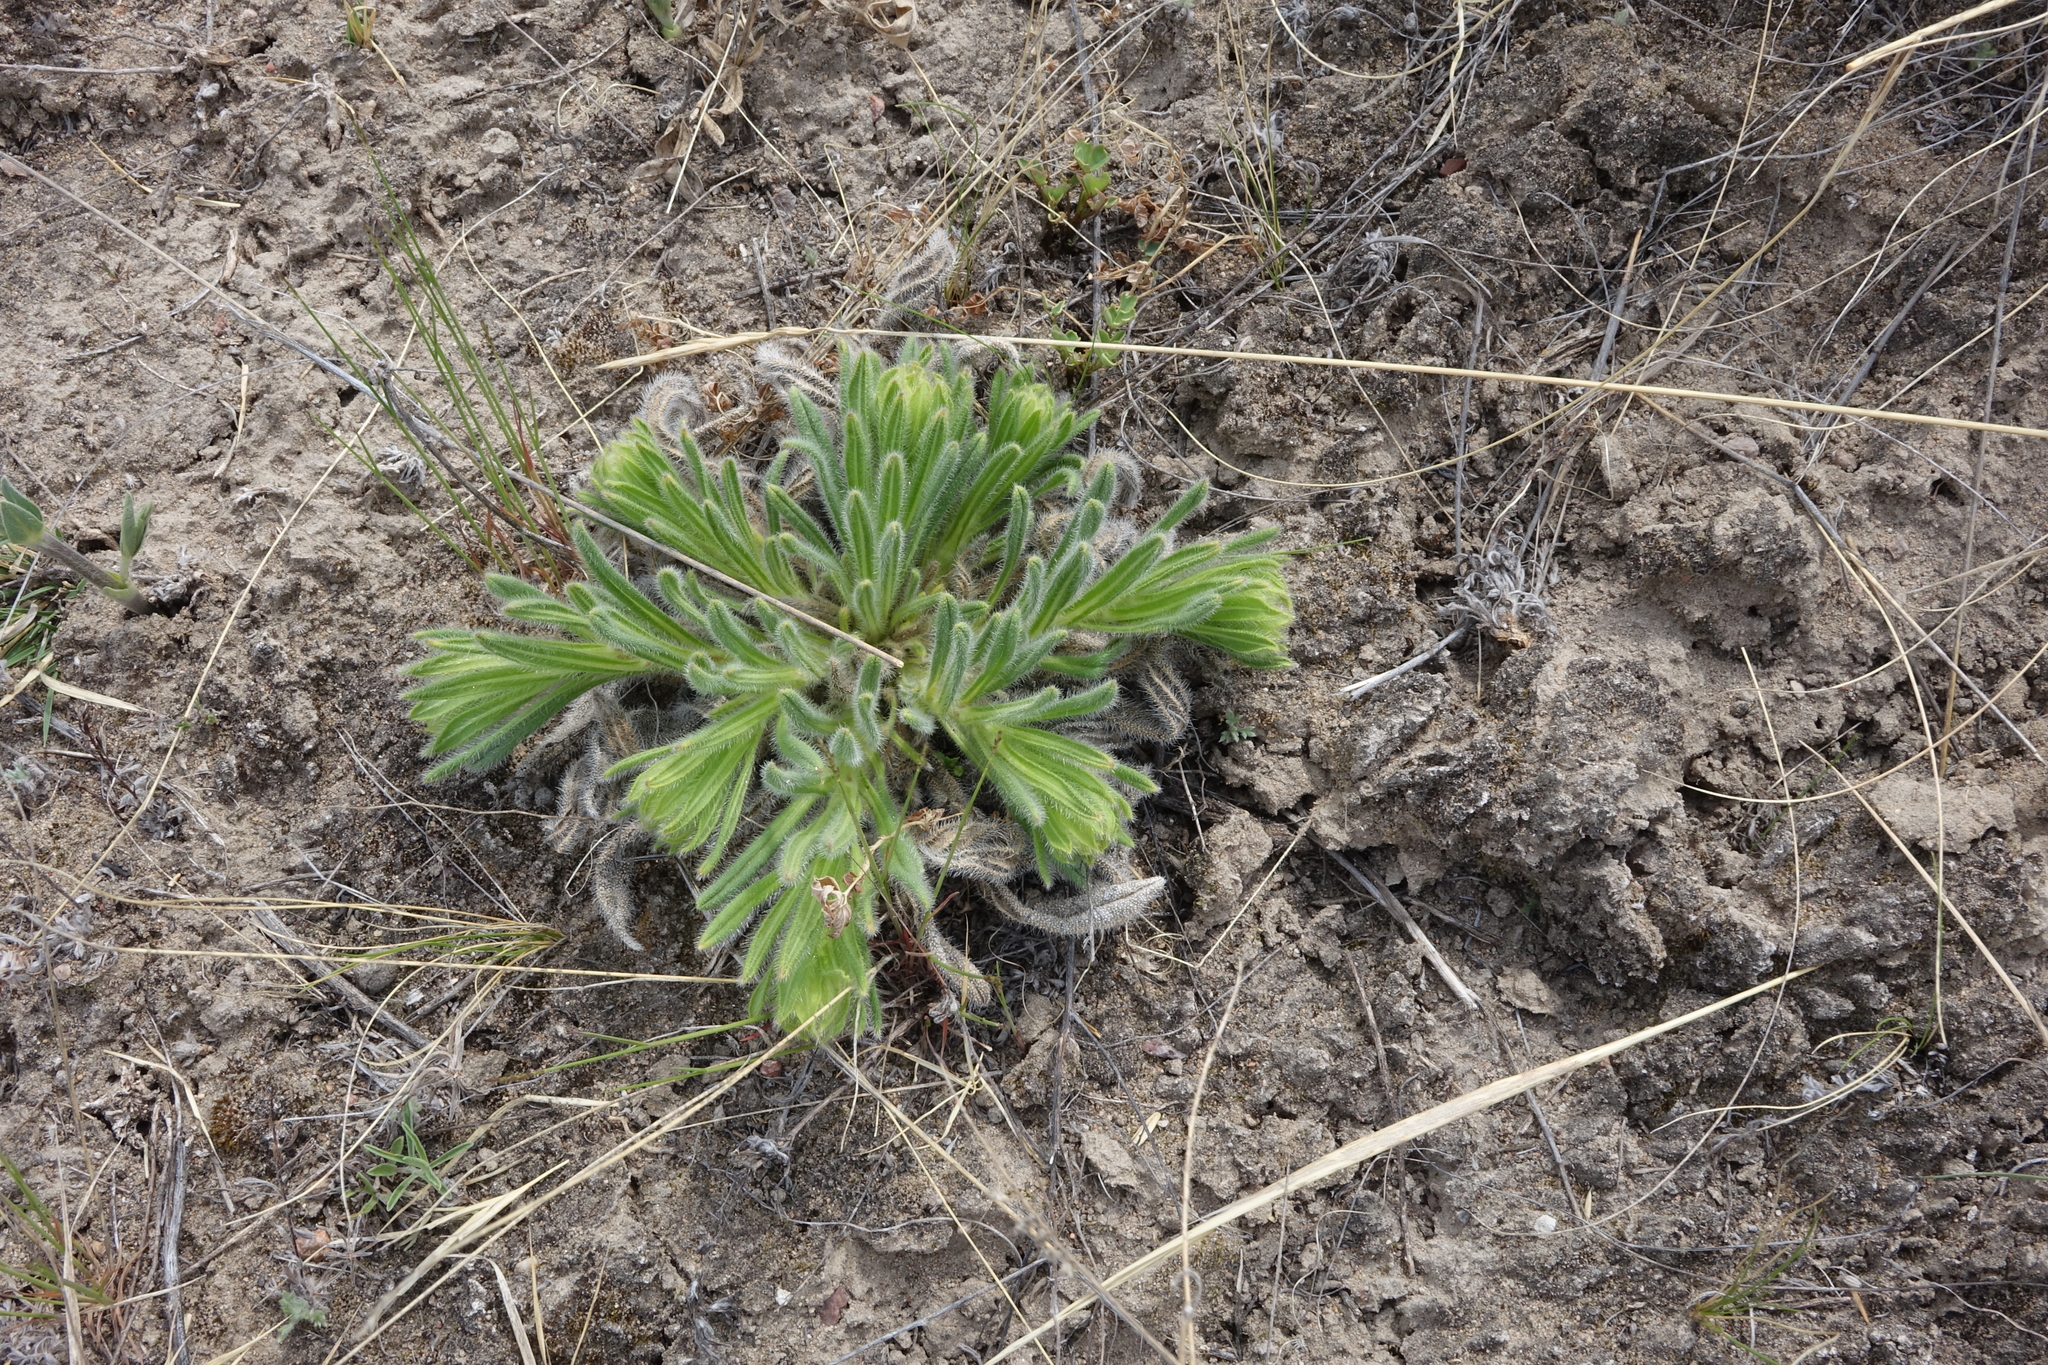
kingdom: Plantae
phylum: Tracheophyta
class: Magnoliopsida
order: Boraginales
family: Boraginaceae
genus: Onosma
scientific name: Onosma gmelinii
